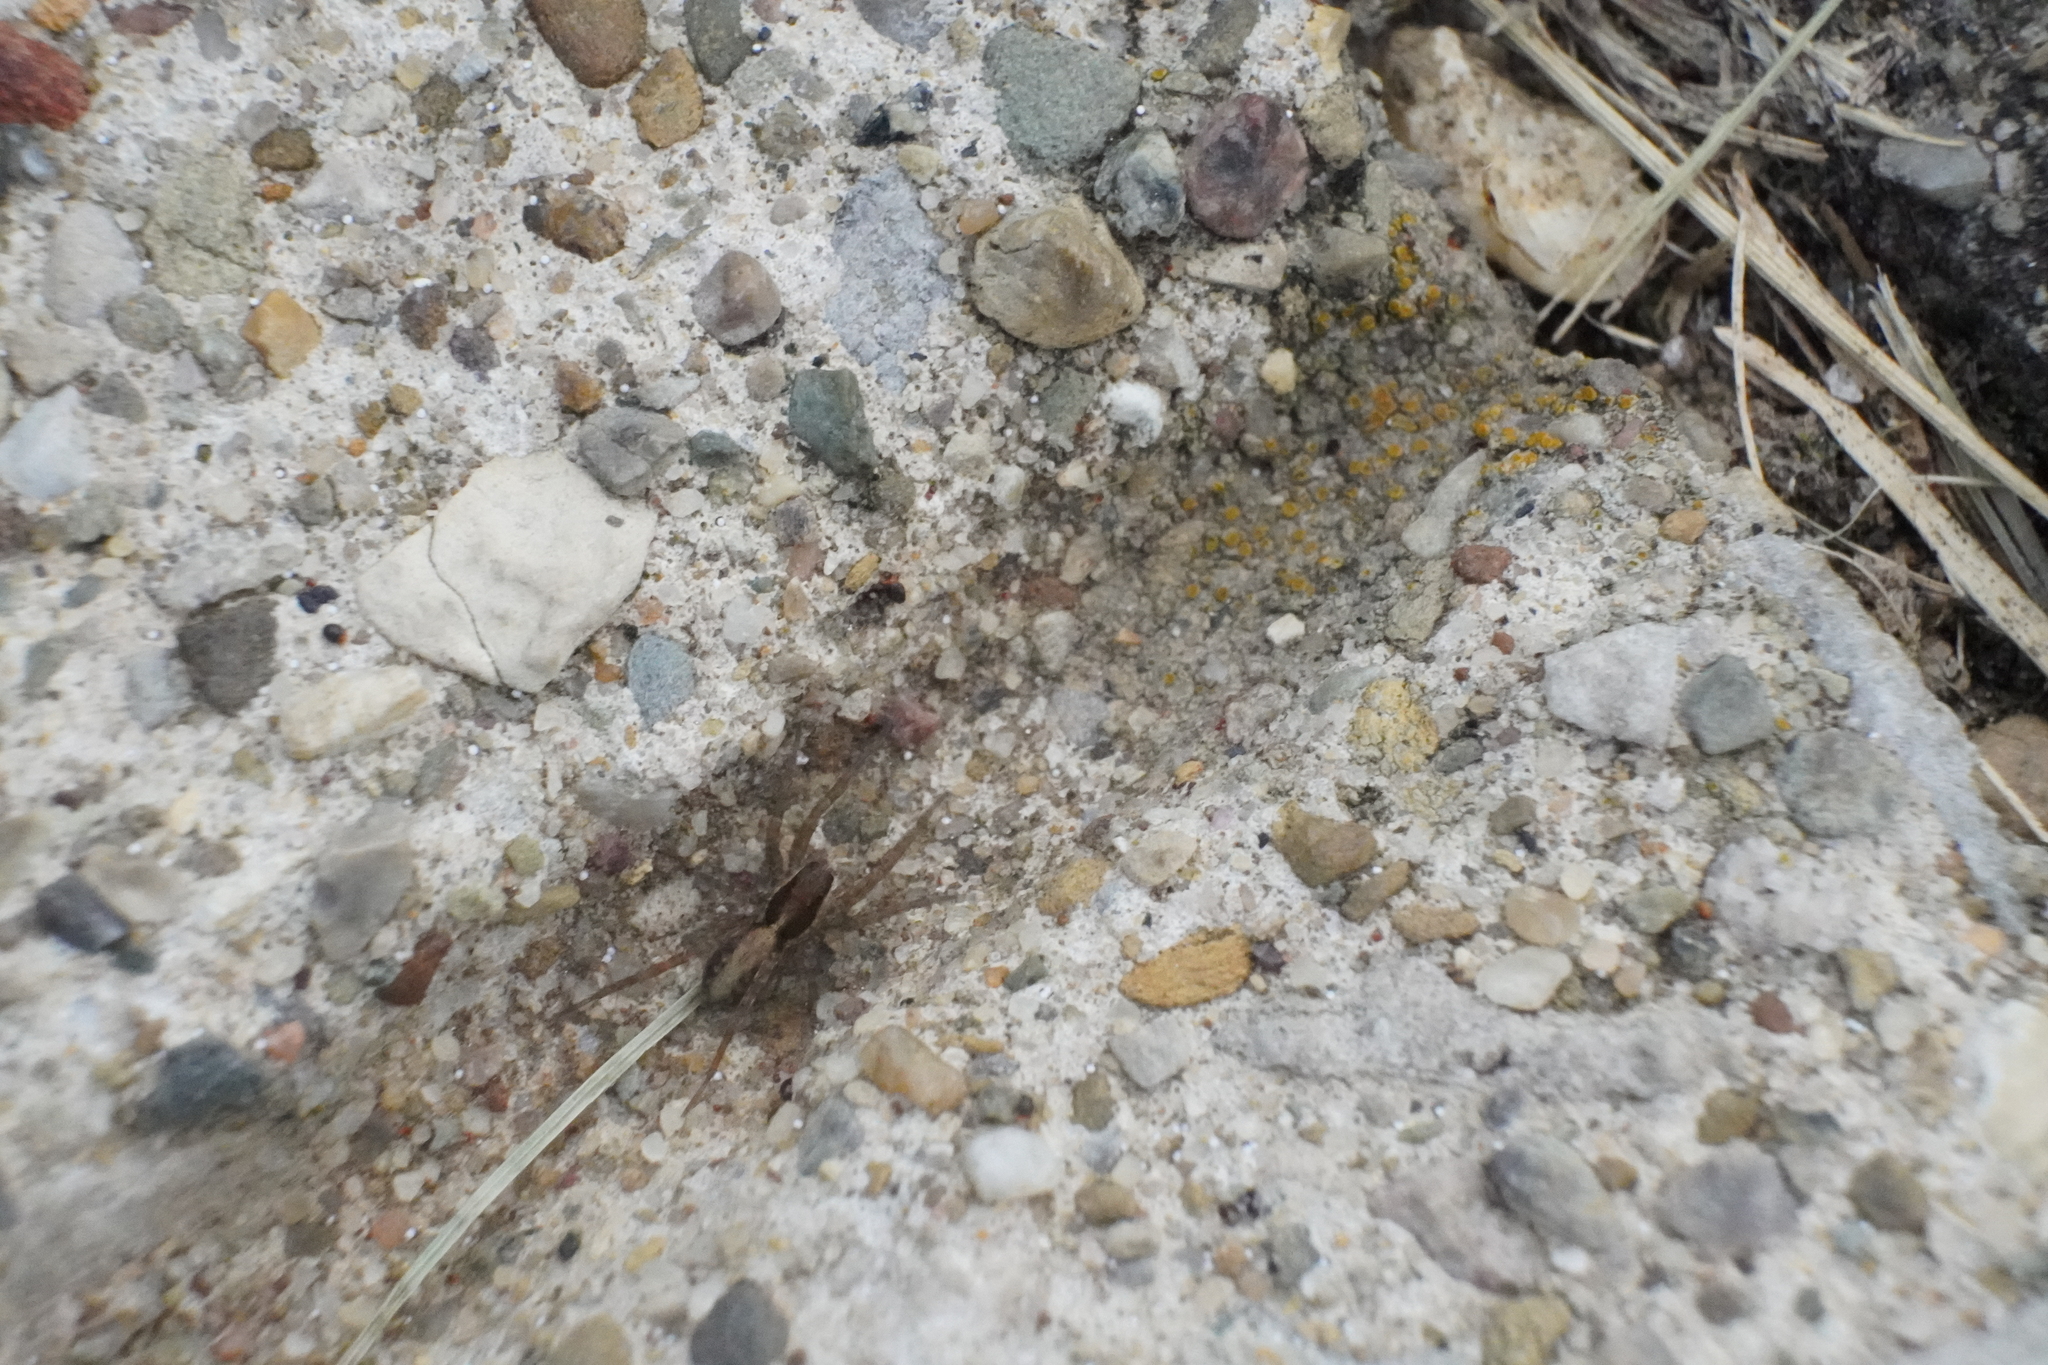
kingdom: Animalia
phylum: Arthropoda
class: Arachnida
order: Araneae
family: Lycosidae
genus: Pardosa
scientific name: Pardosa pauxilla
